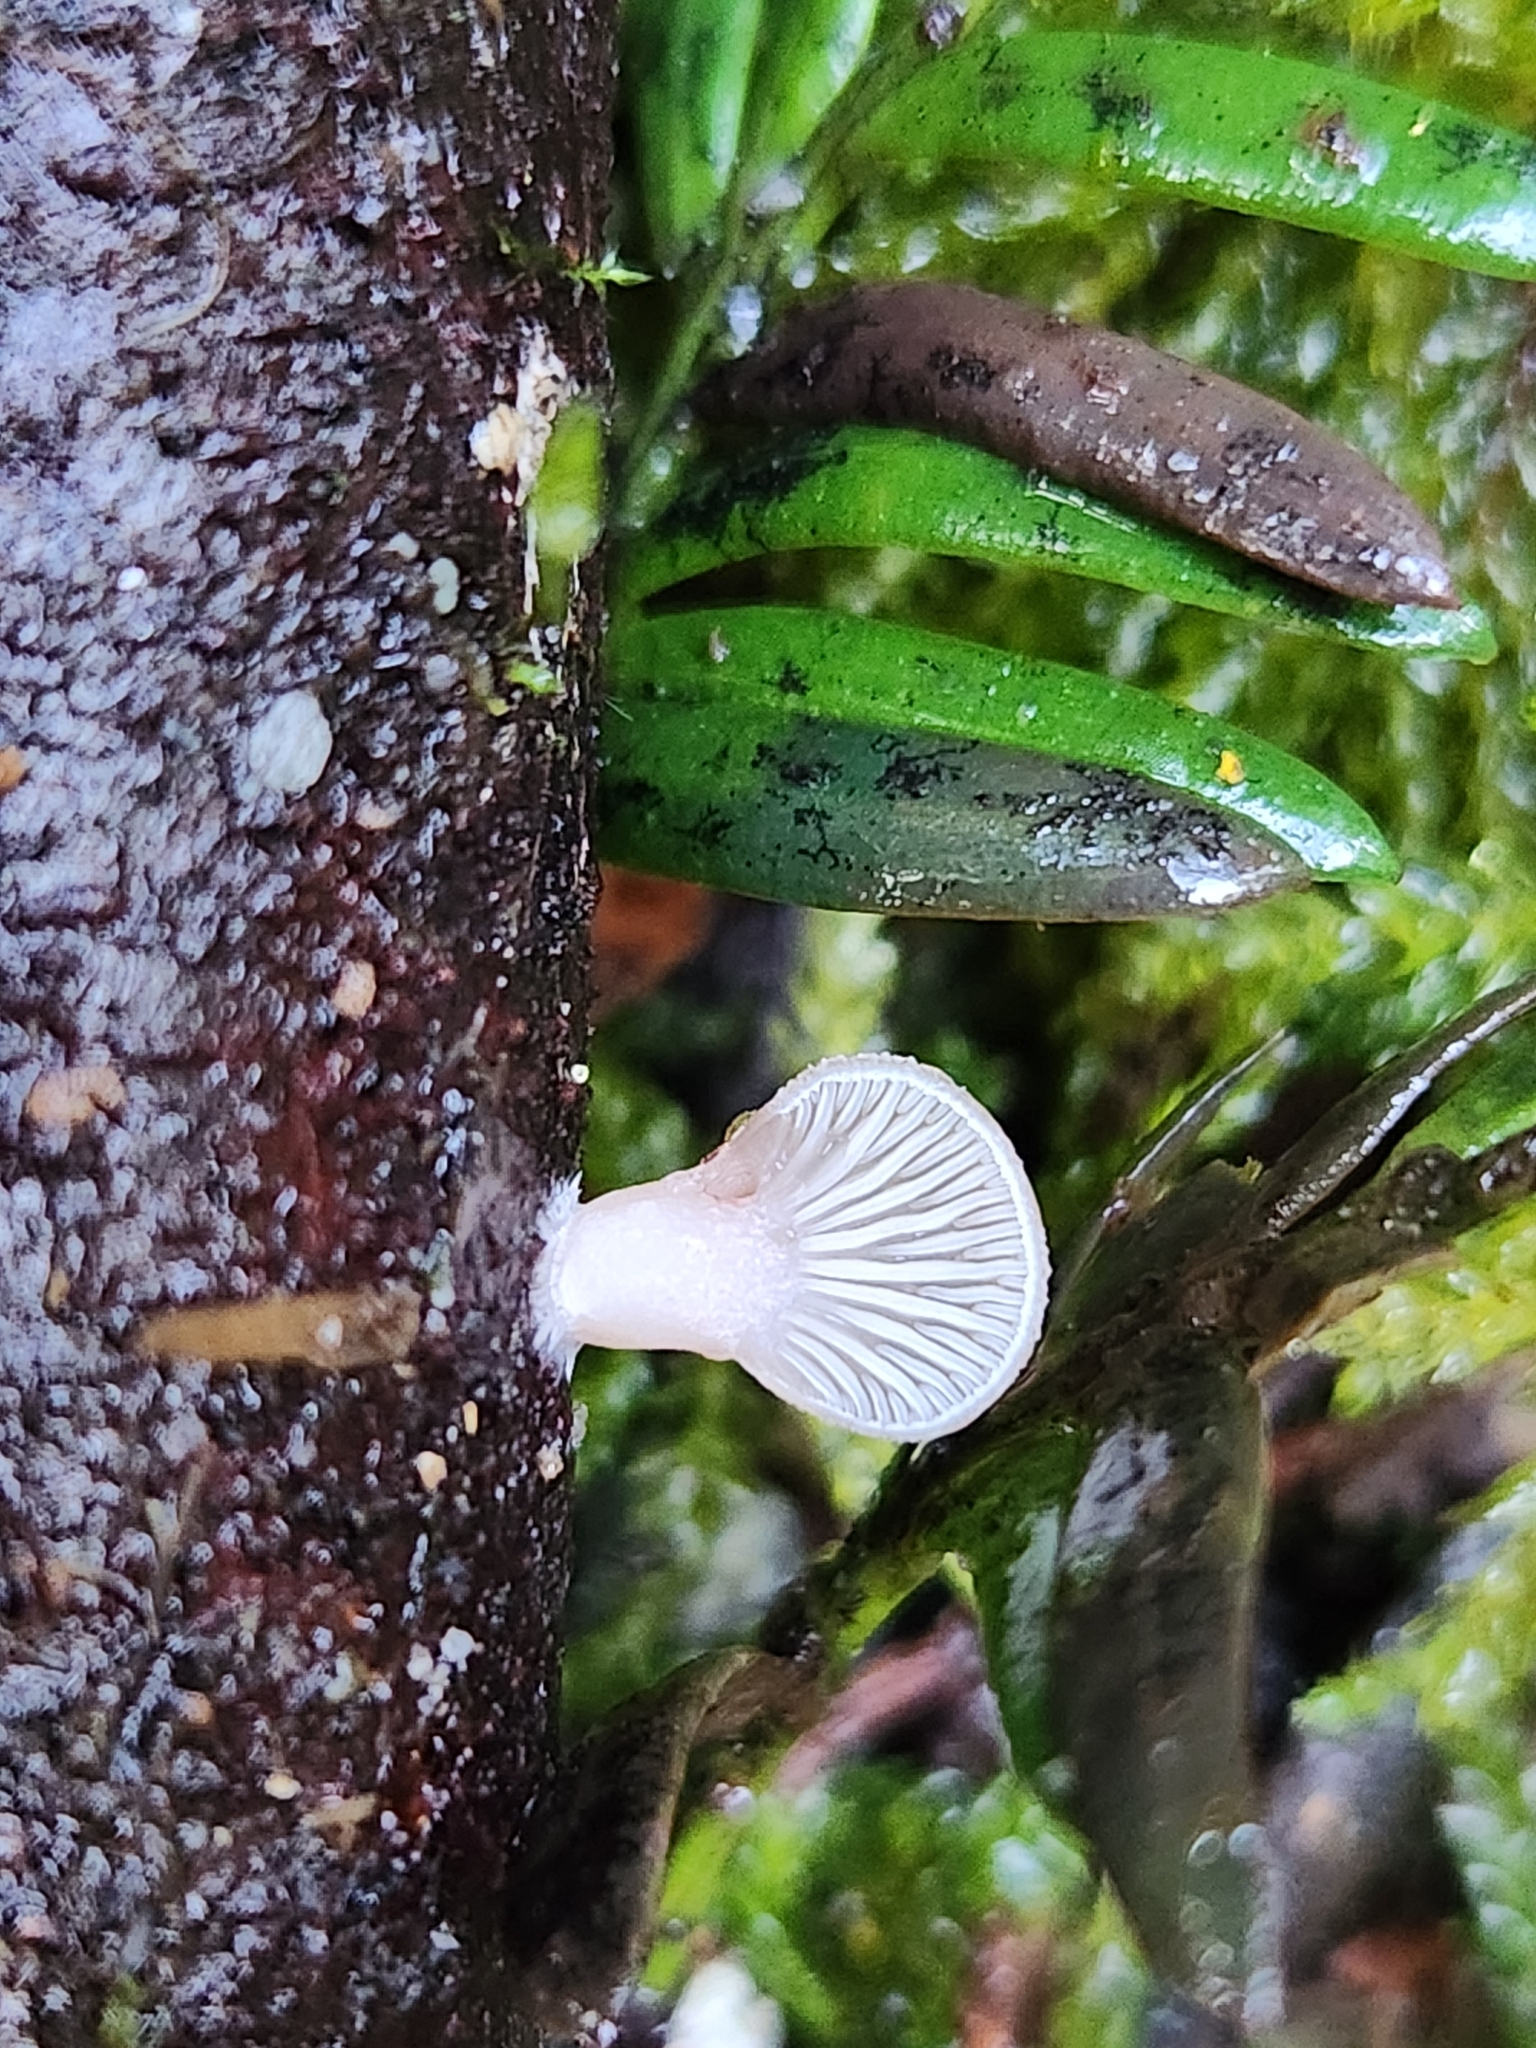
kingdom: Fungi
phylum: Basidiomycota
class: Agaricomycetes
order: Agaricales
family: Mycenaceae
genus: Panellus
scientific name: Panellus longinquus
